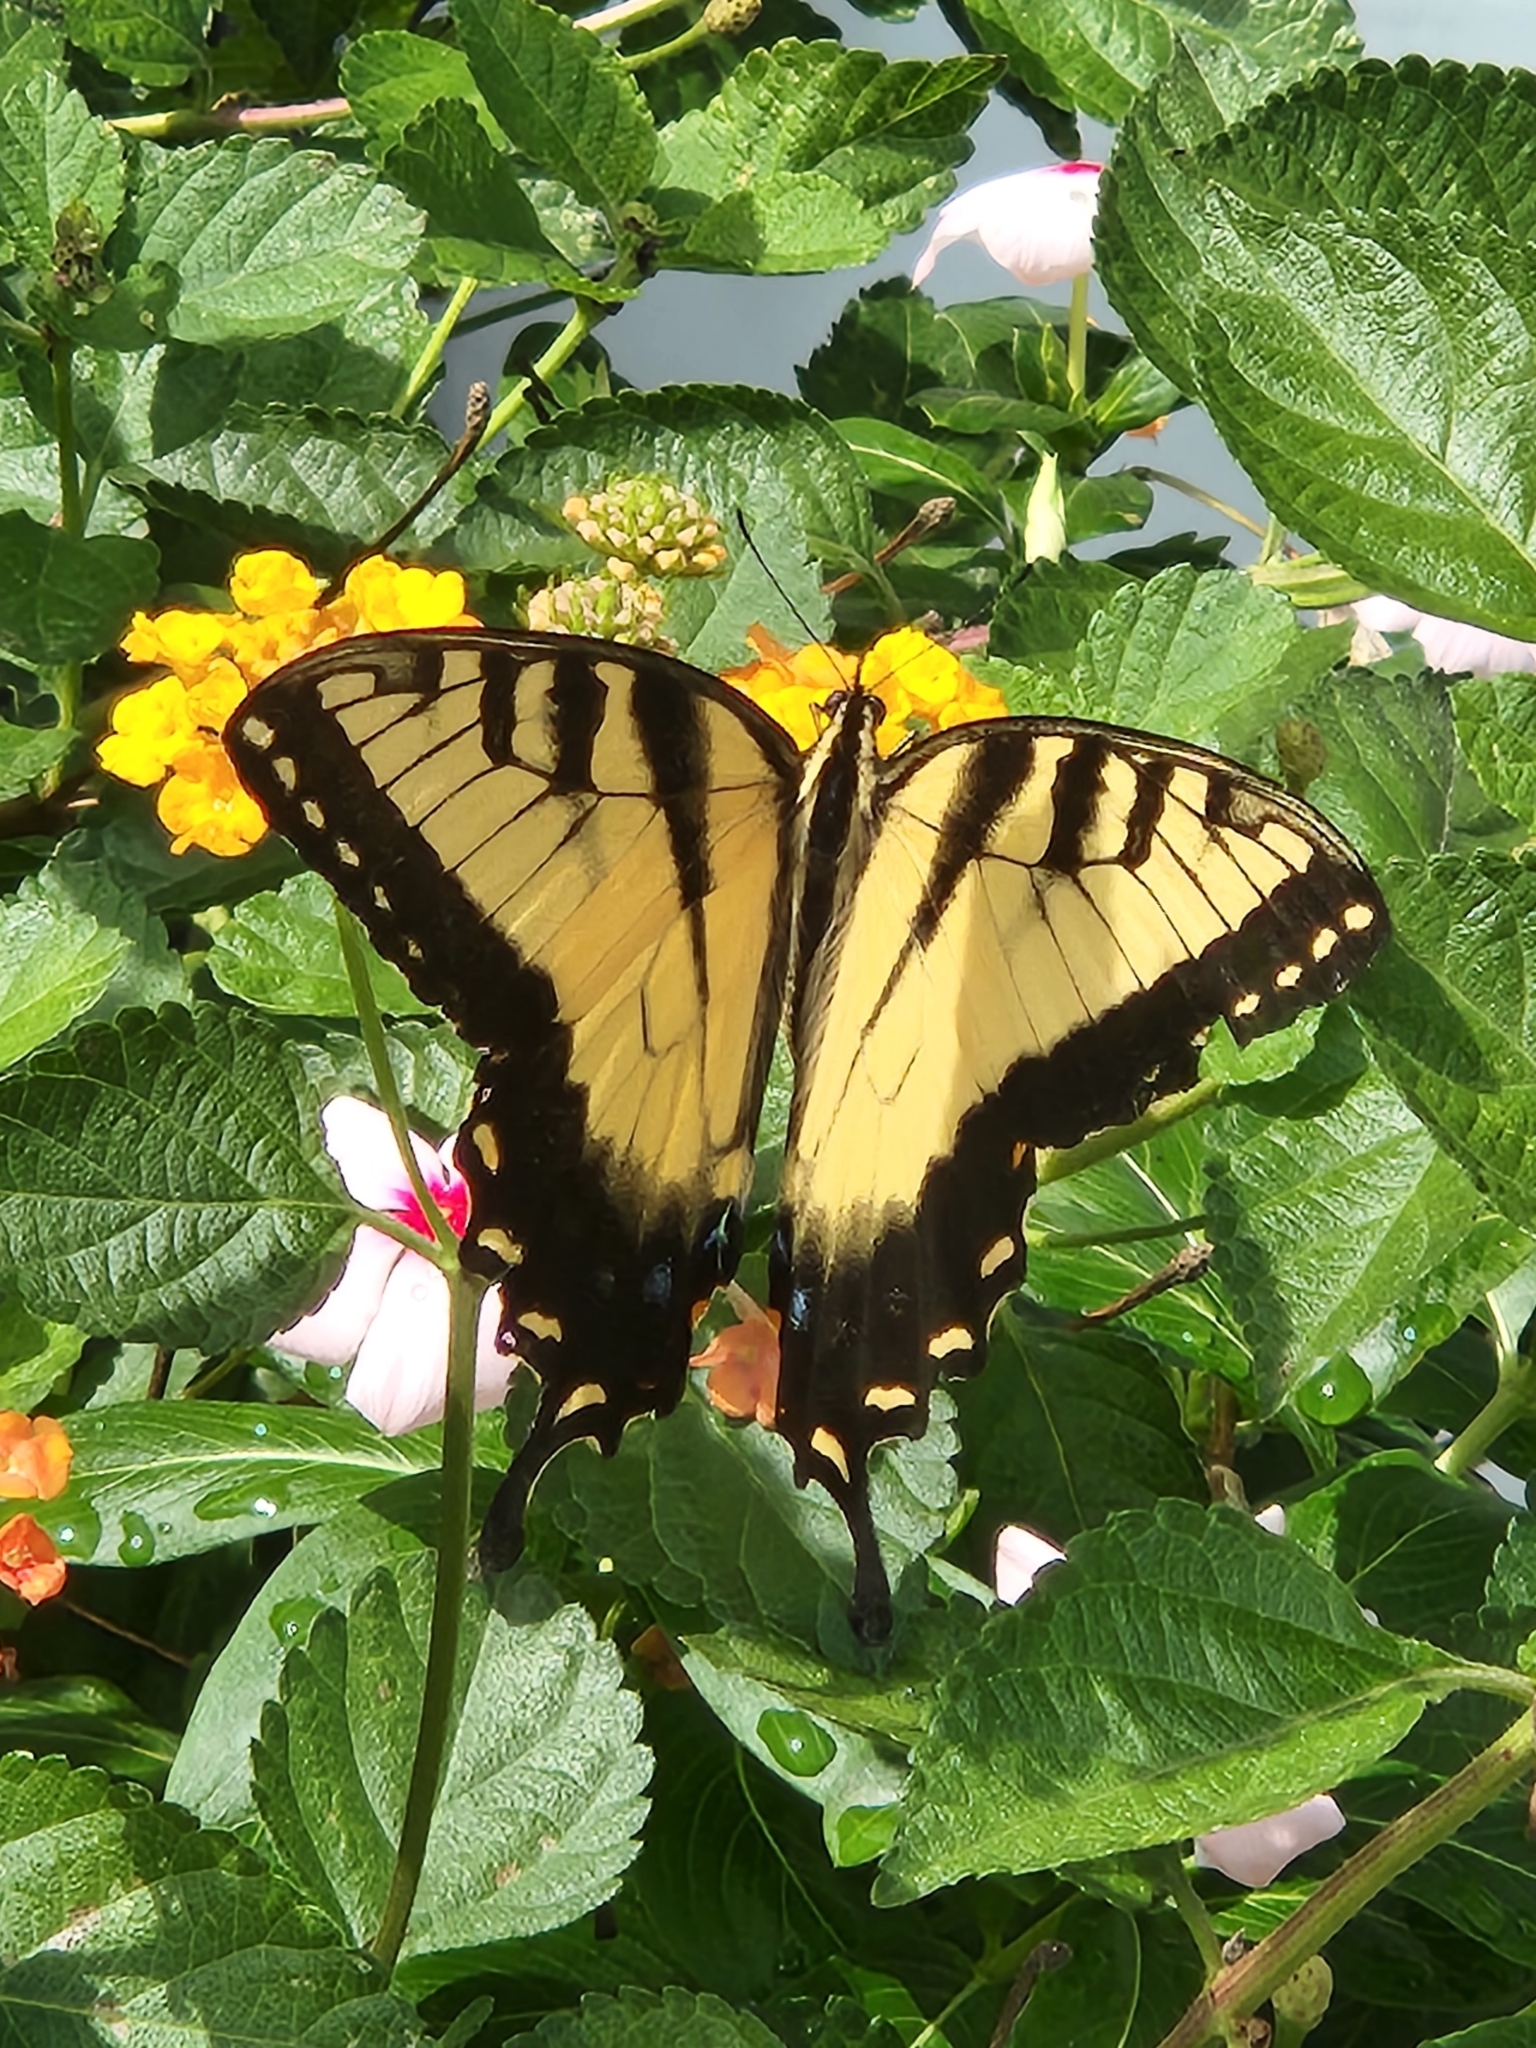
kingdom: Animalia
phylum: Arthropoda
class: Insecta
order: Lepidoptera
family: Papilionidae
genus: Papilio
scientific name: Papilio glaucus
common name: Tiger swallowtail
